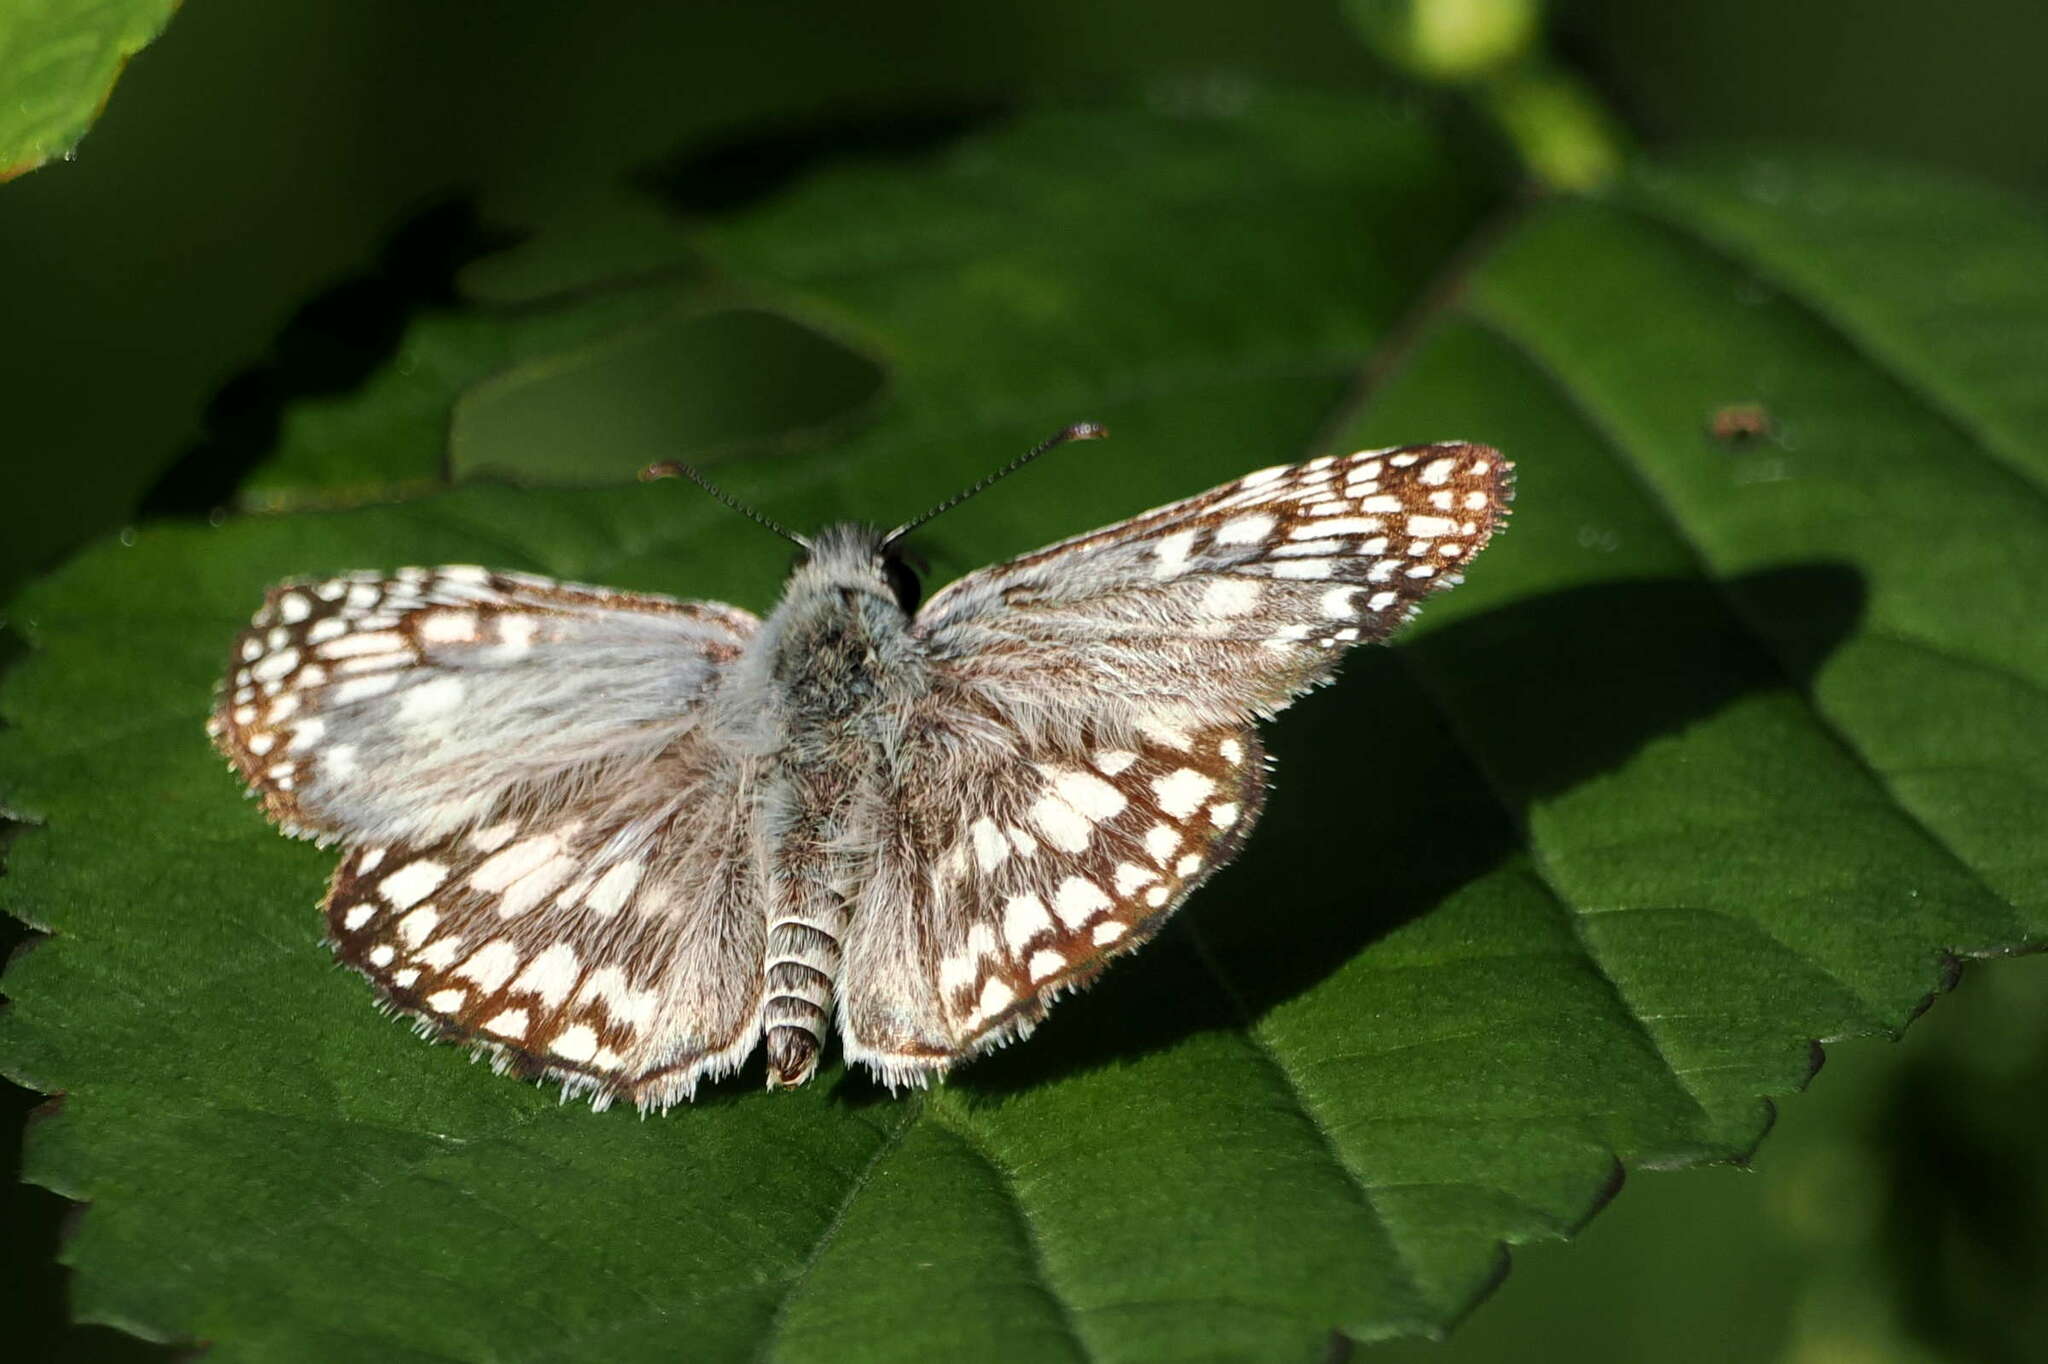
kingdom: Animalia
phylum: Arthropoda
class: Insecta
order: Lepidoptera
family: Hesperiidae
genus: Pyrgus
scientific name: Pyrgus oileus
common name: Tropical checkered-skipper
